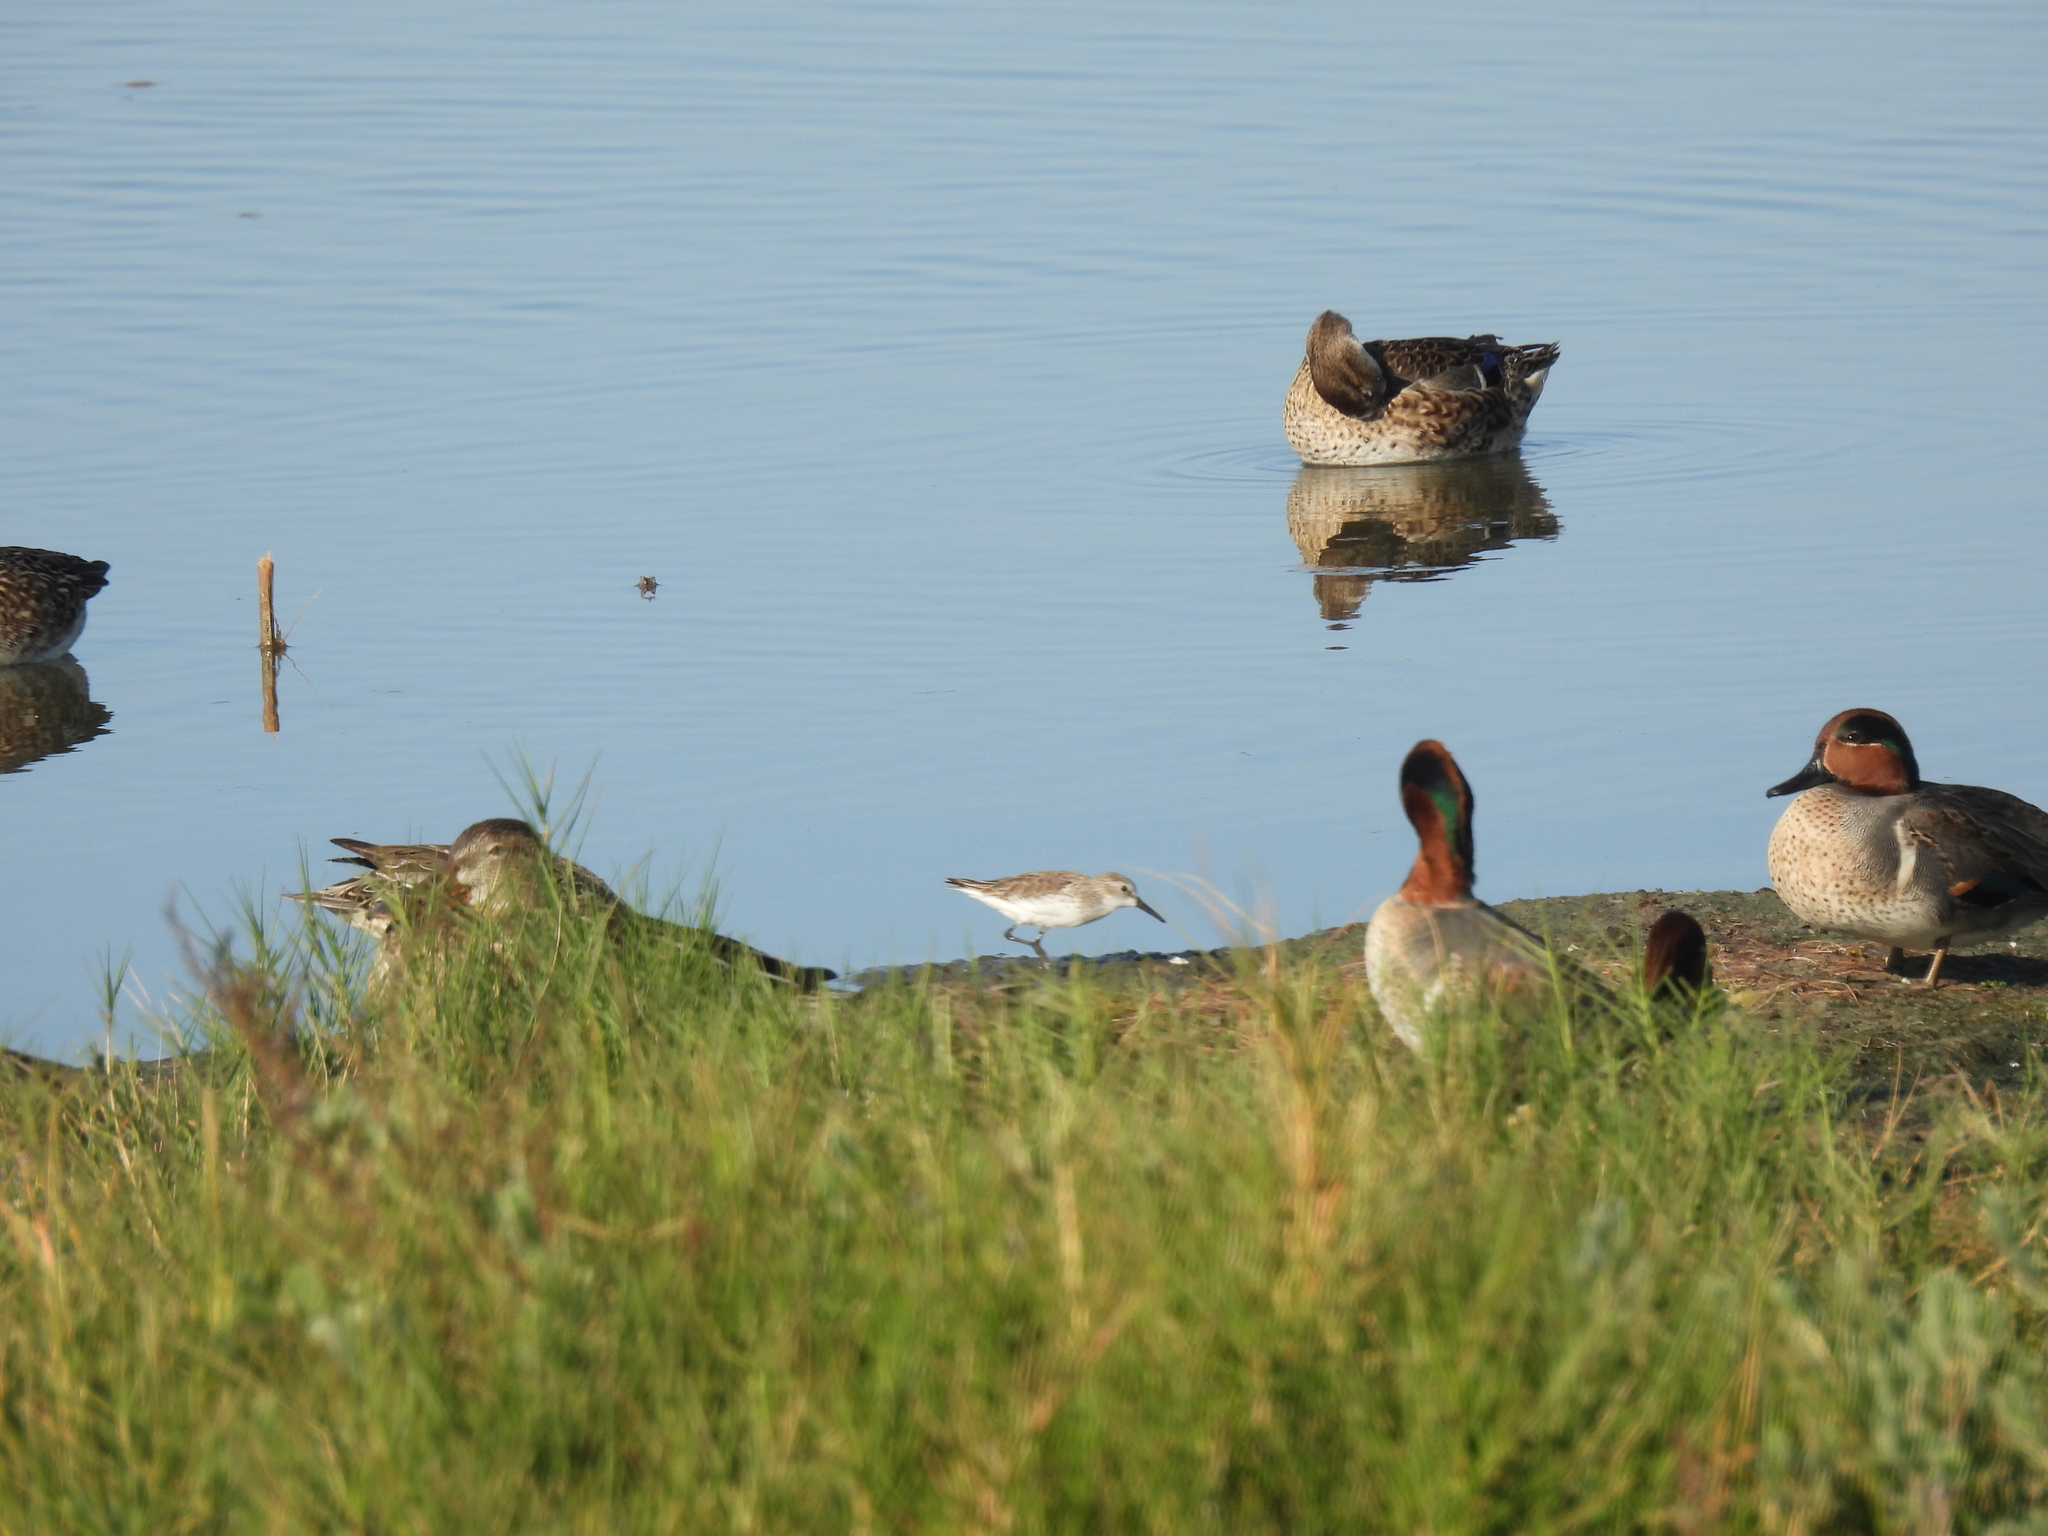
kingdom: Animalia
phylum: Chordata
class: Aves
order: Charadriiformes
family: Scolopacidae
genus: Calidris
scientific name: Calidris mauri
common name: Western sandpiper
